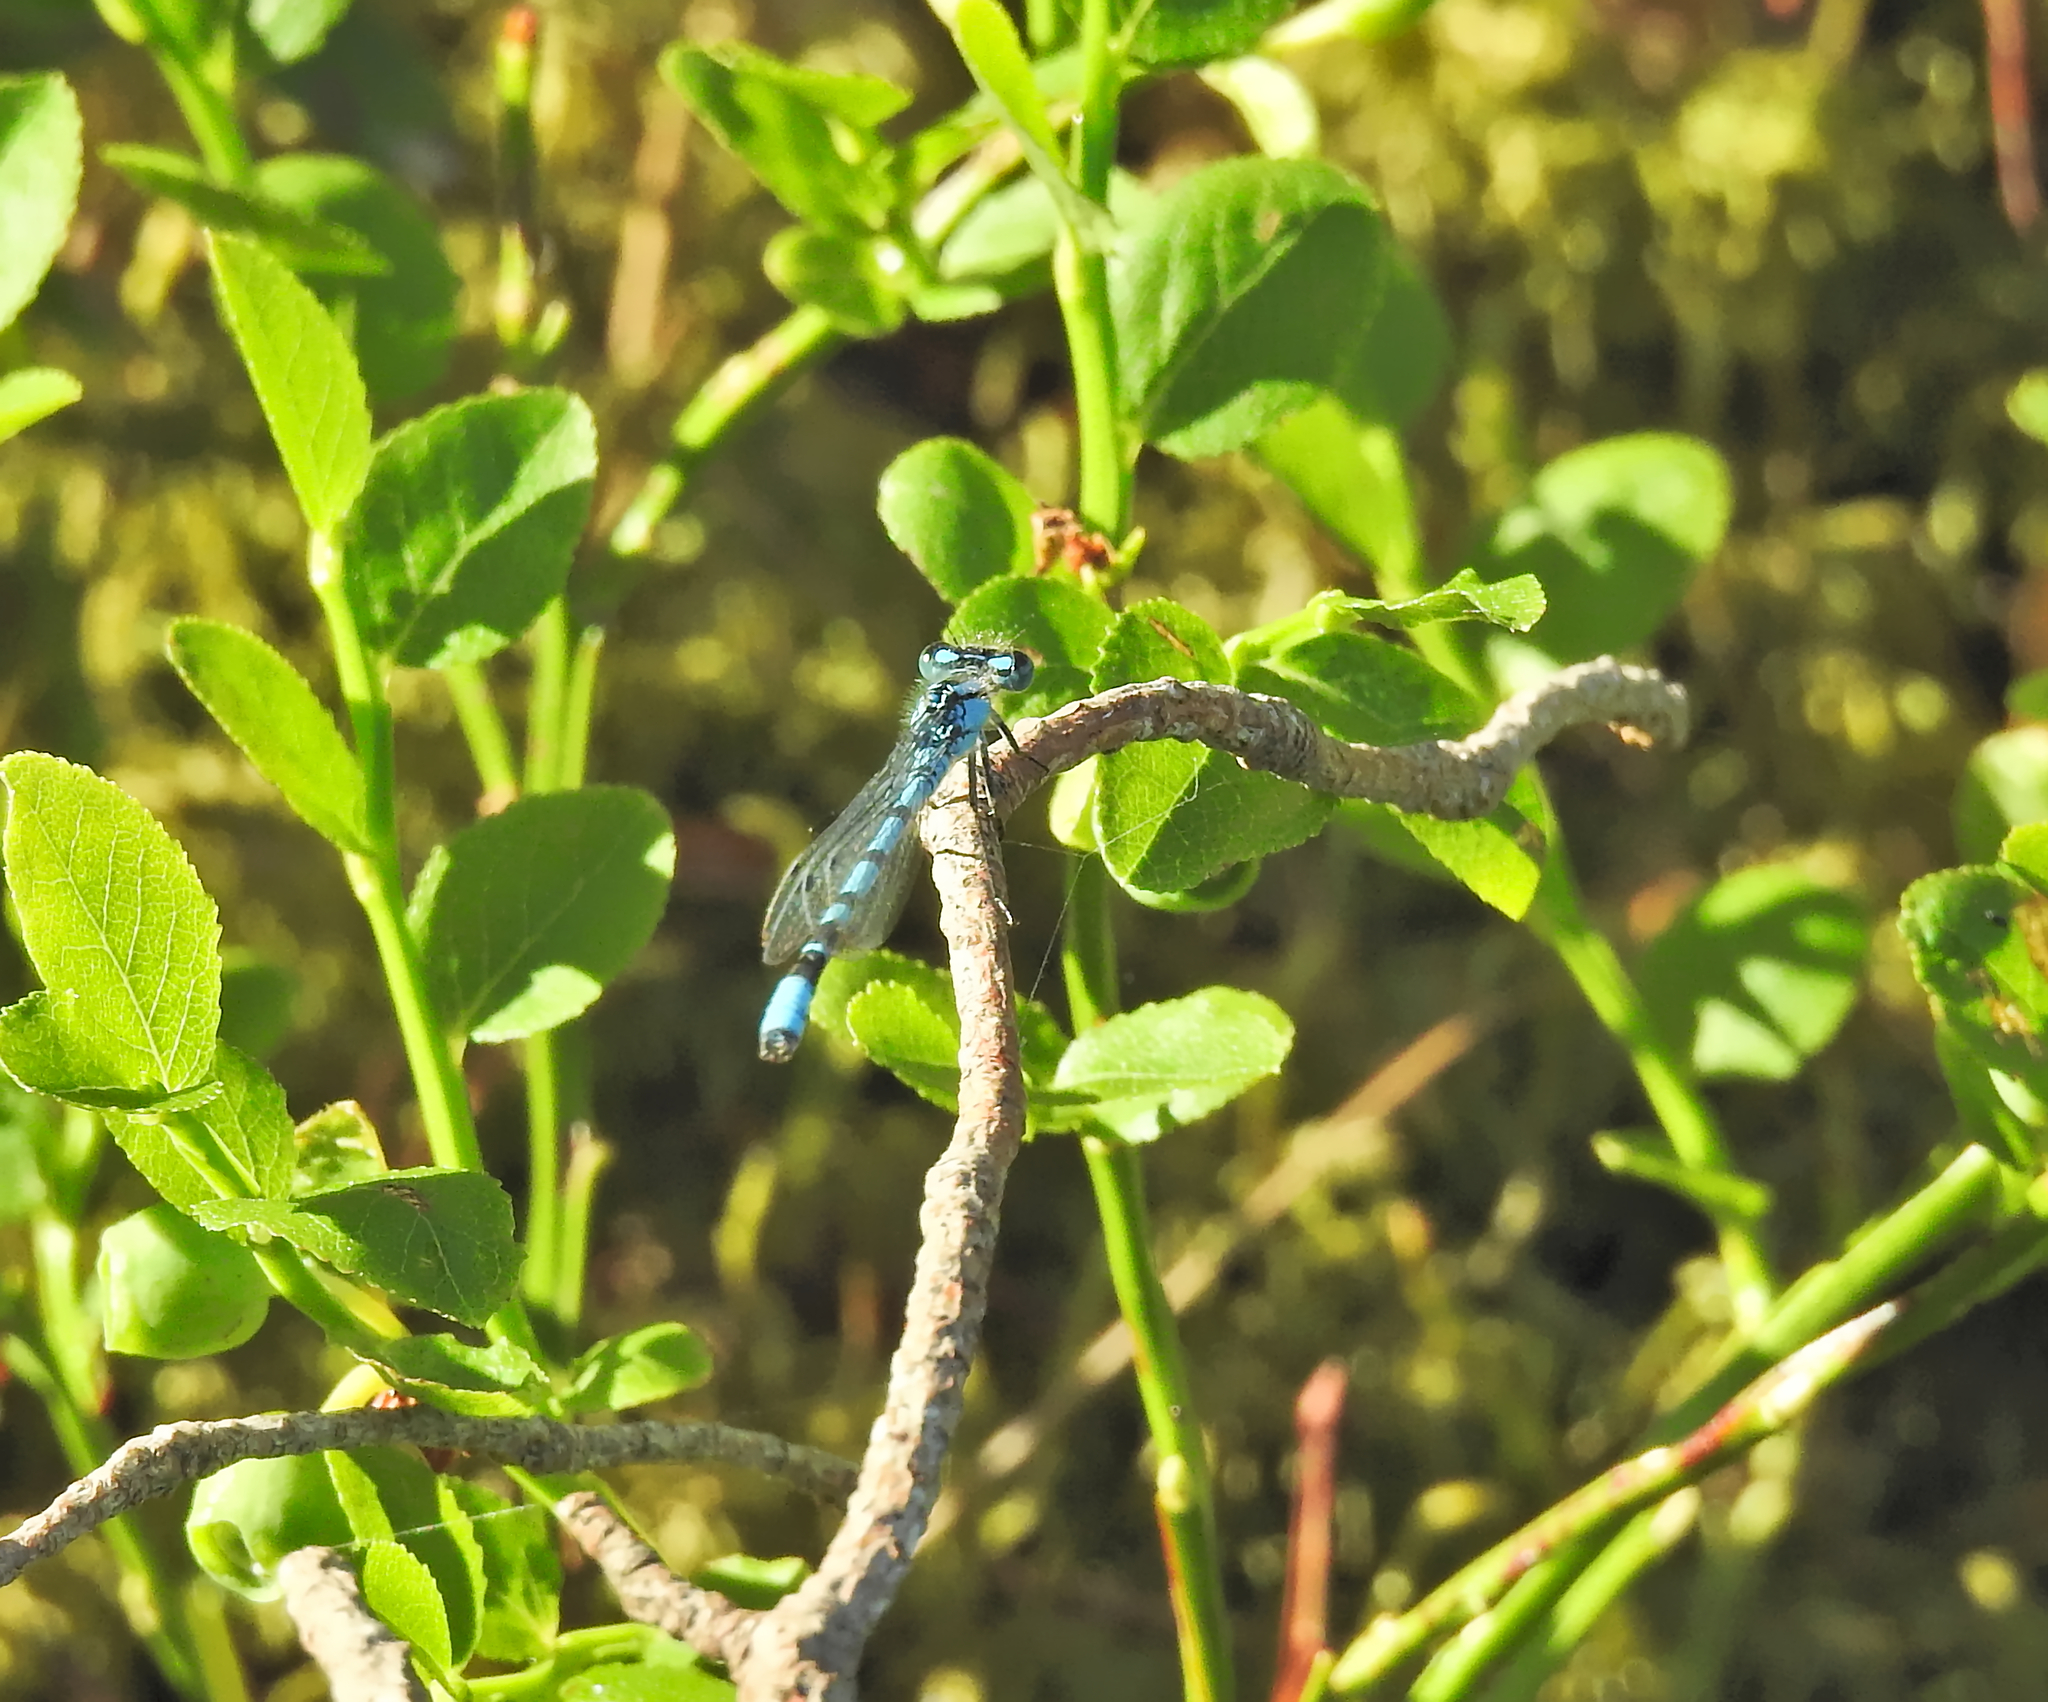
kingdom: Animalia
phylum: Arthropoda
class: Insecta
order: Odonata
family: Coenagrionidae
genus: Enallagma
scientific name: Enallagma cyathigerum
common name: Common blue damselfly
